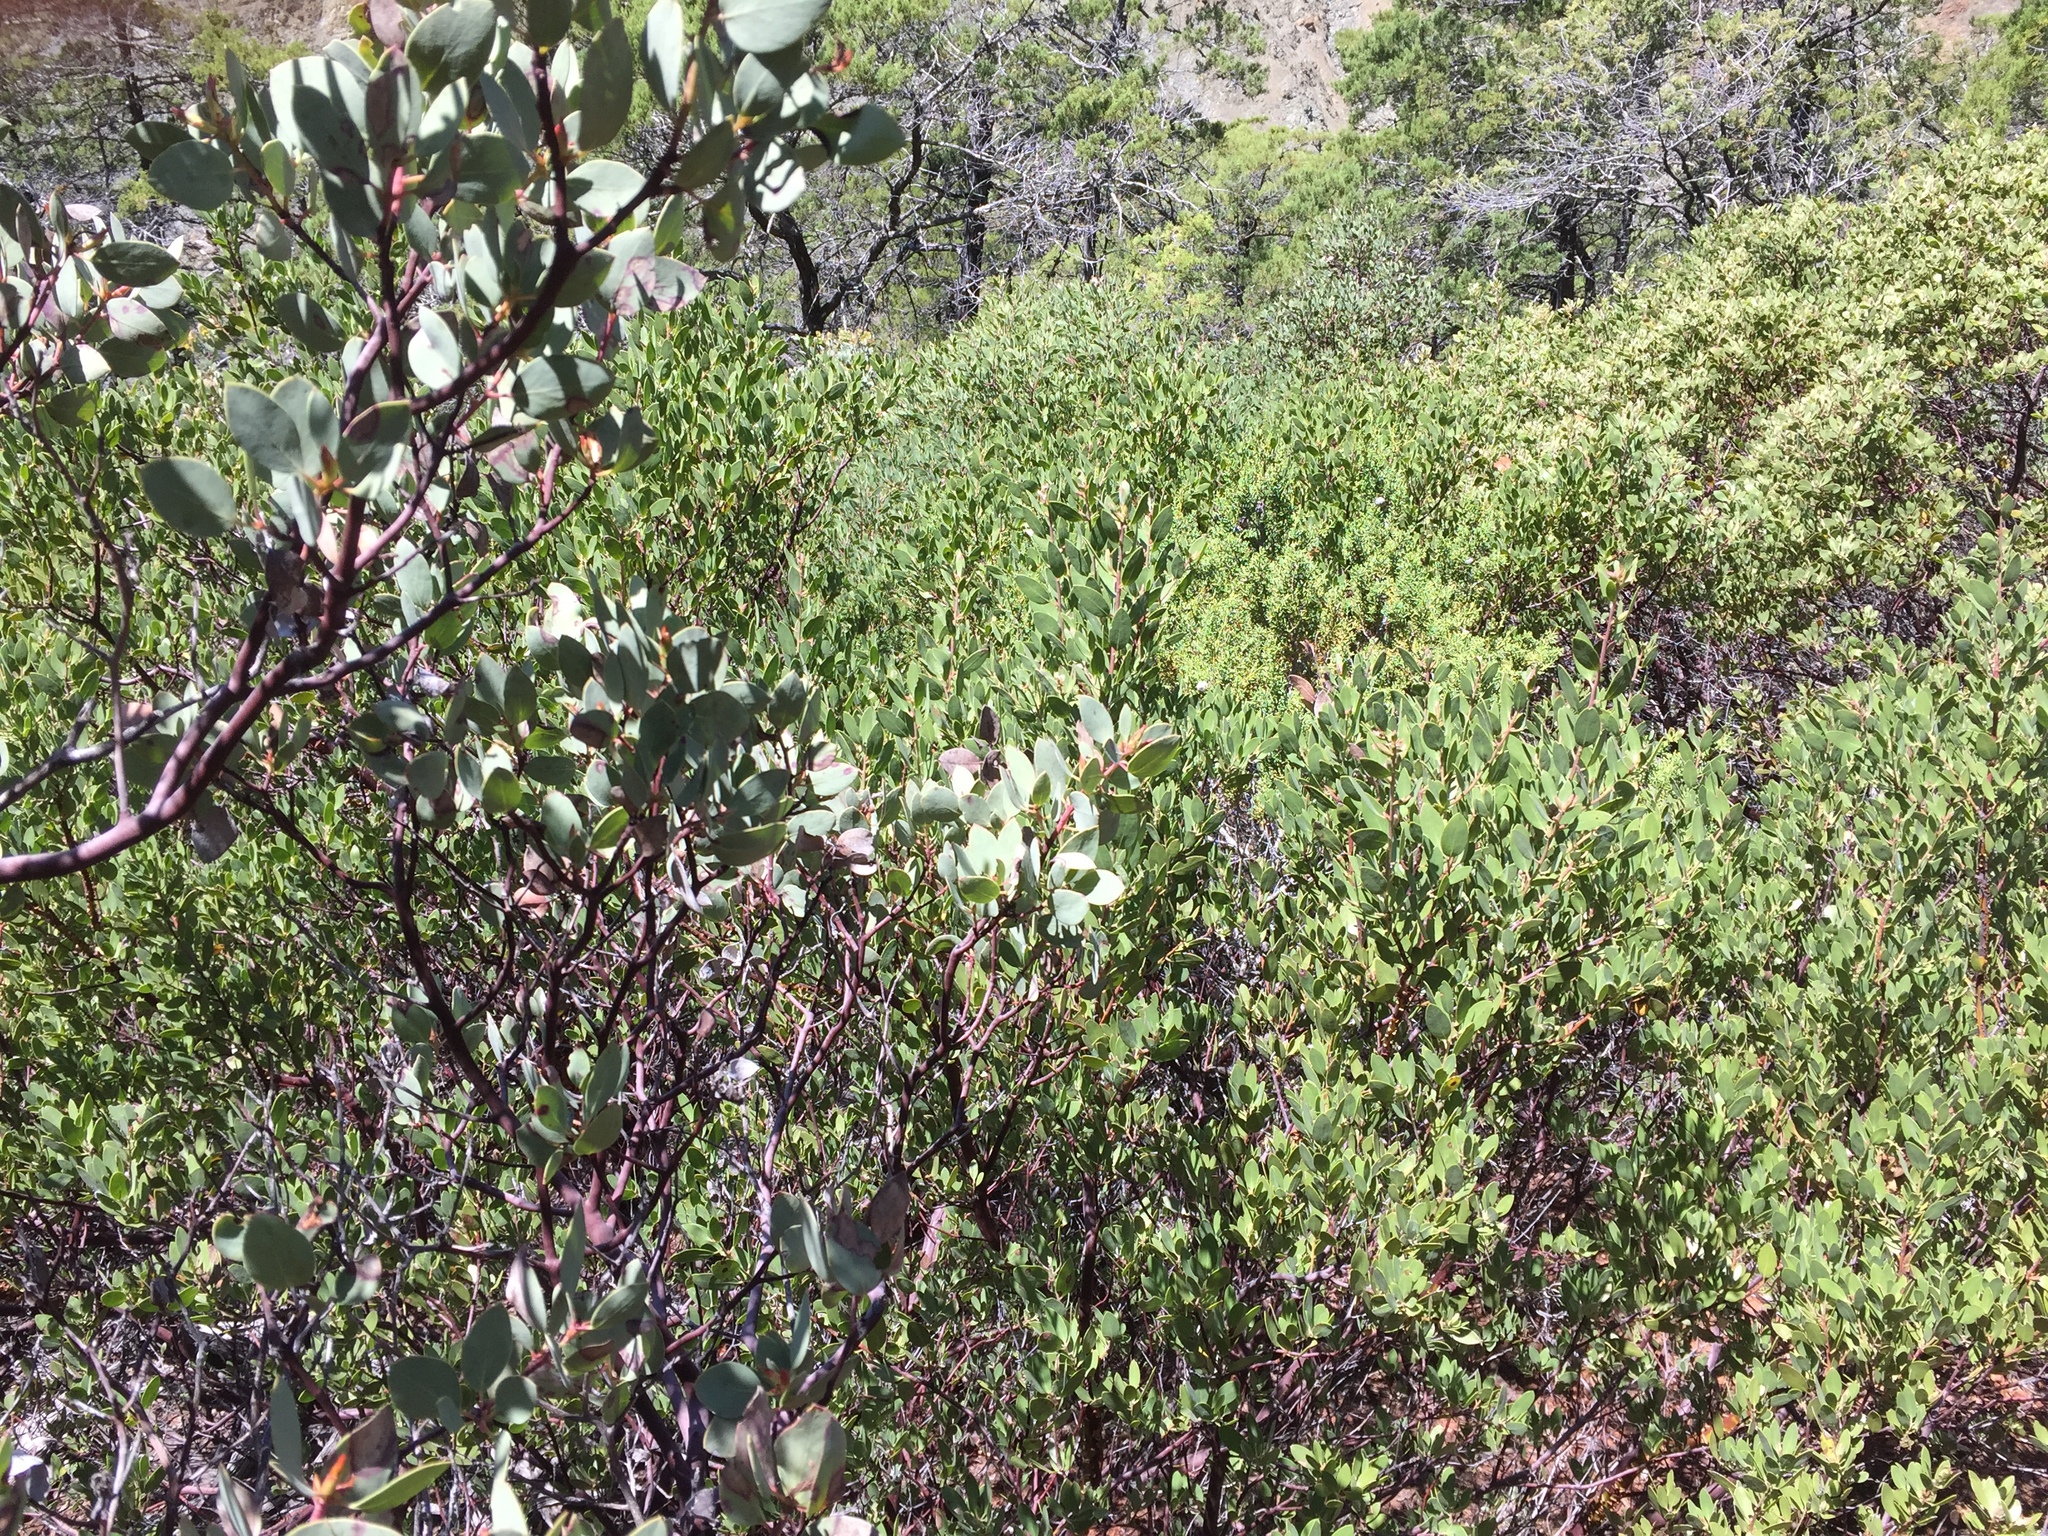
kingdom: Plantae
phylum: Tracheophyta
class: Magnoliopsida
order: Ericales
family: Ericaceae
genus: Arctostaphylos
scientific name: Arctostaphylos viscida
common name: White-leaf manzanita
